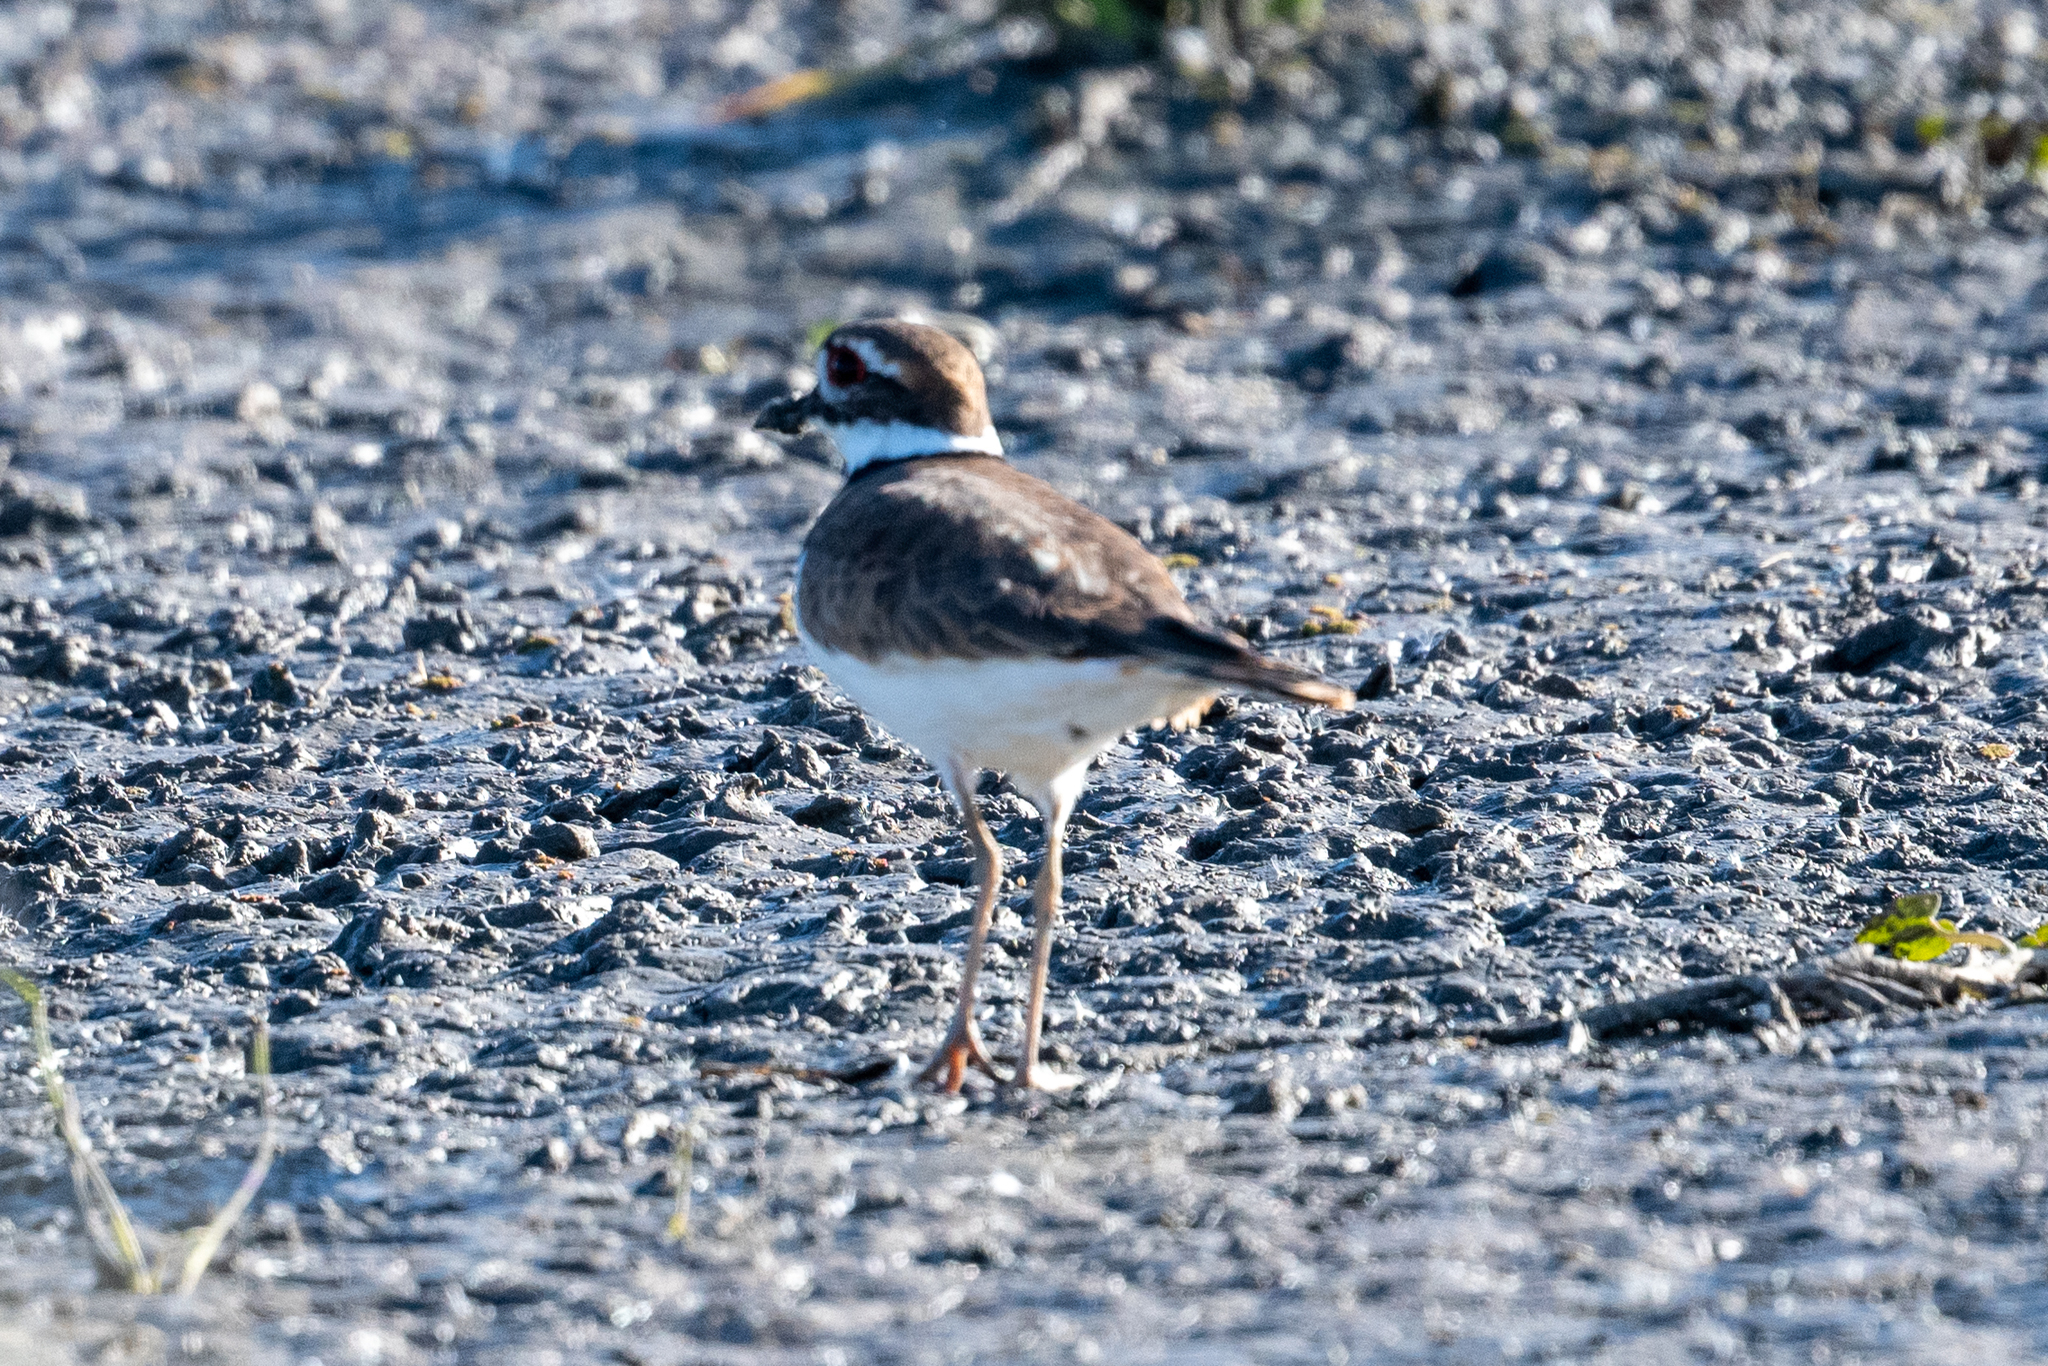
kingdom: Animalia
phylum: Chordata
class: Aves
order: Charadriiformes
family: Charadriidae
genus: Charadrius
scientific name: Charadrius vociferus
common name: Killdeer
